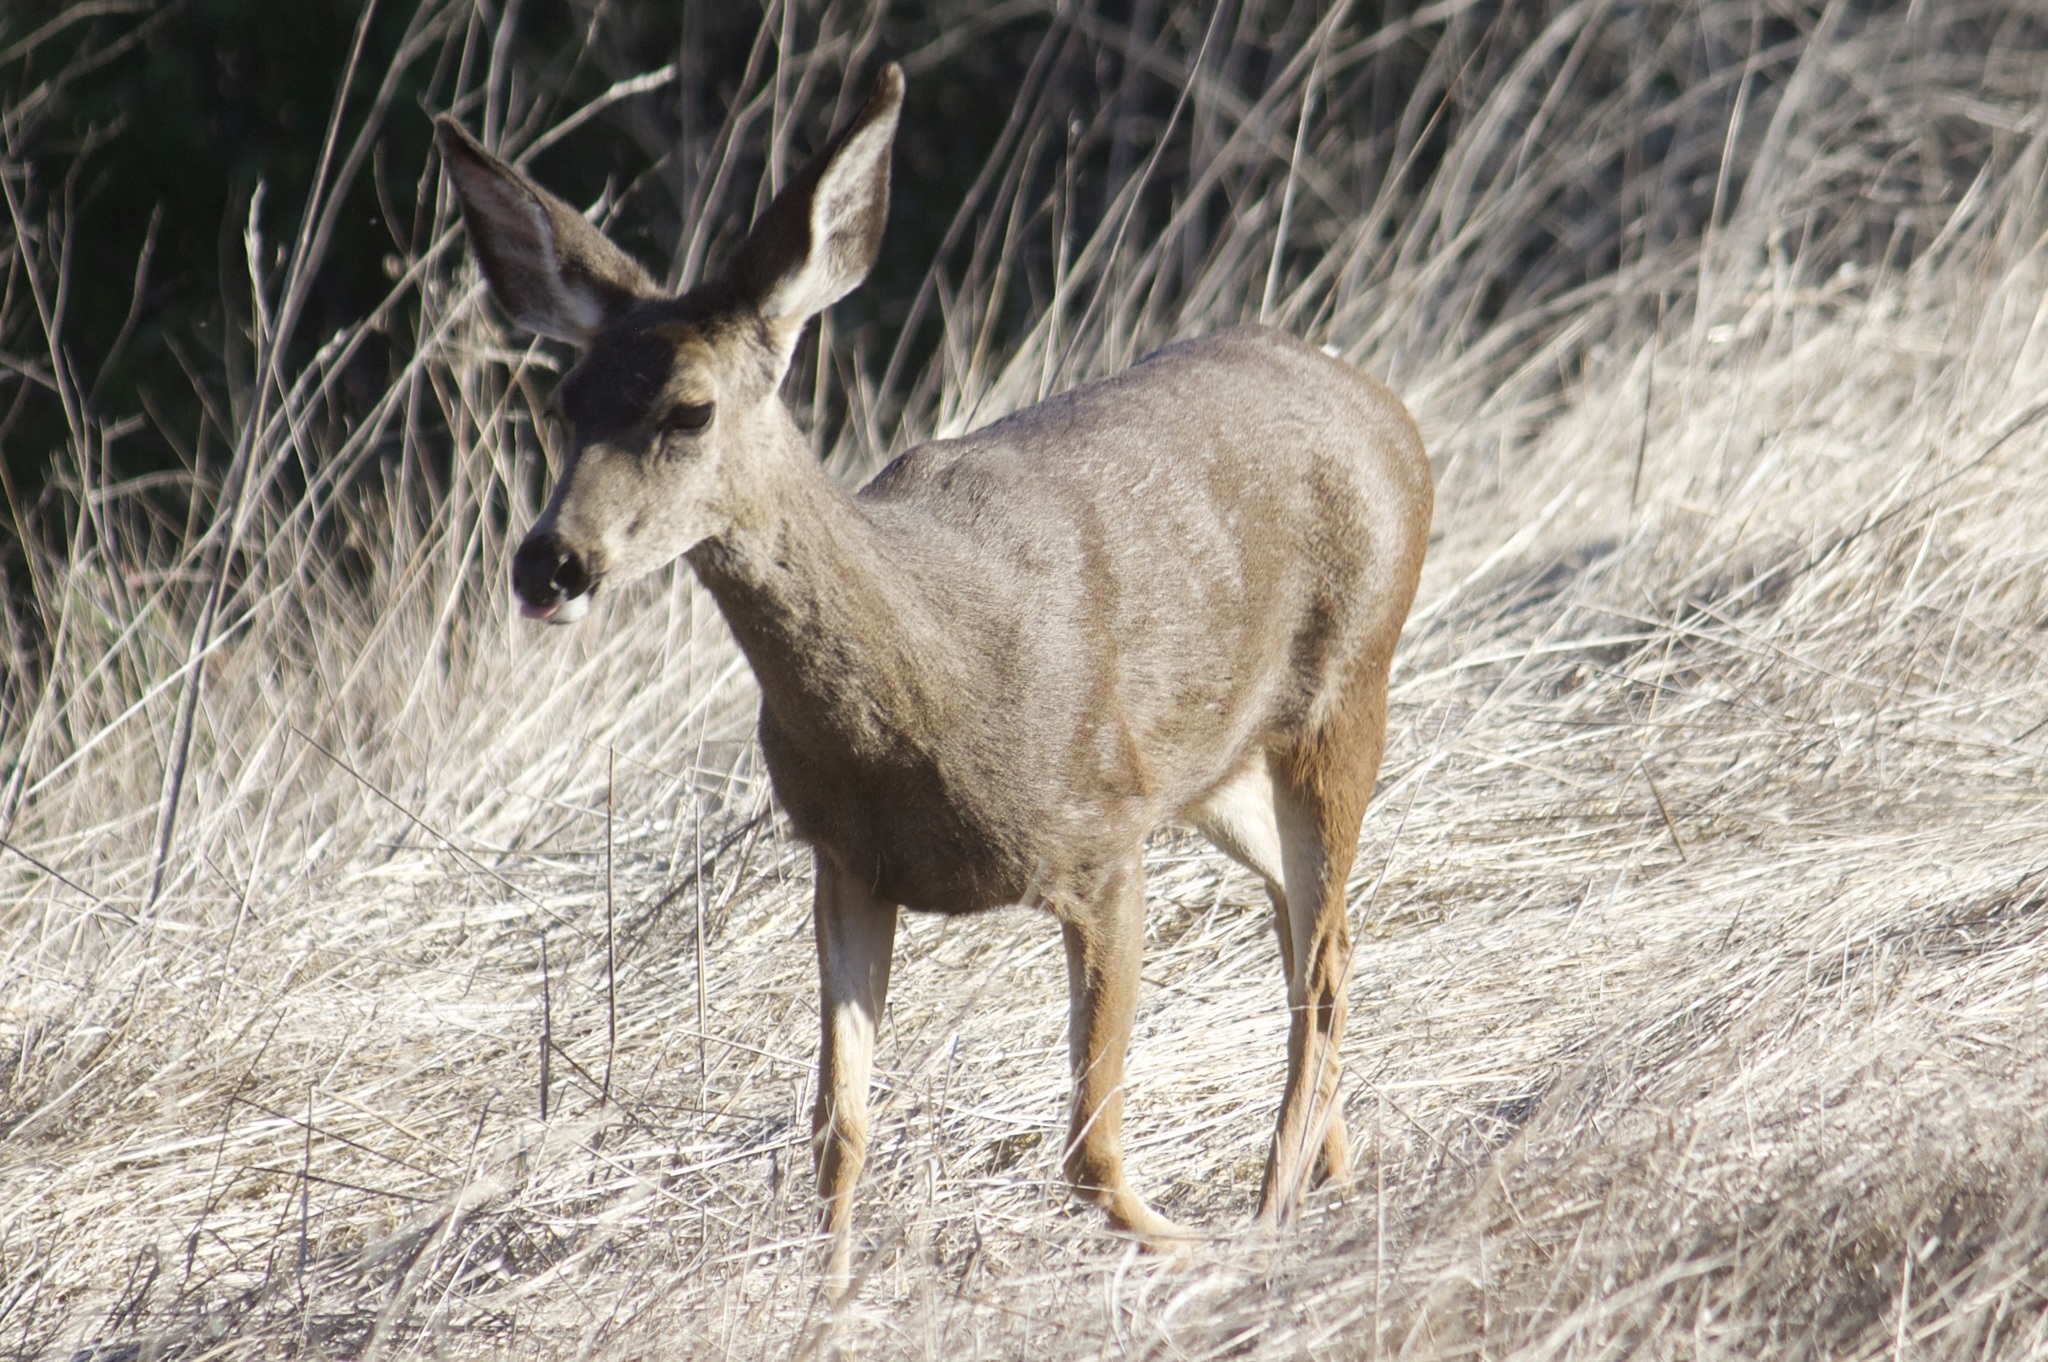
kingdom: Animalia
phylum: Chordata
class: Mammalia
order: Artiodactyla
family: Cervidae
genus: Odocoileus
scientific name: Odocoileus hemionus
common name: Mule deer
